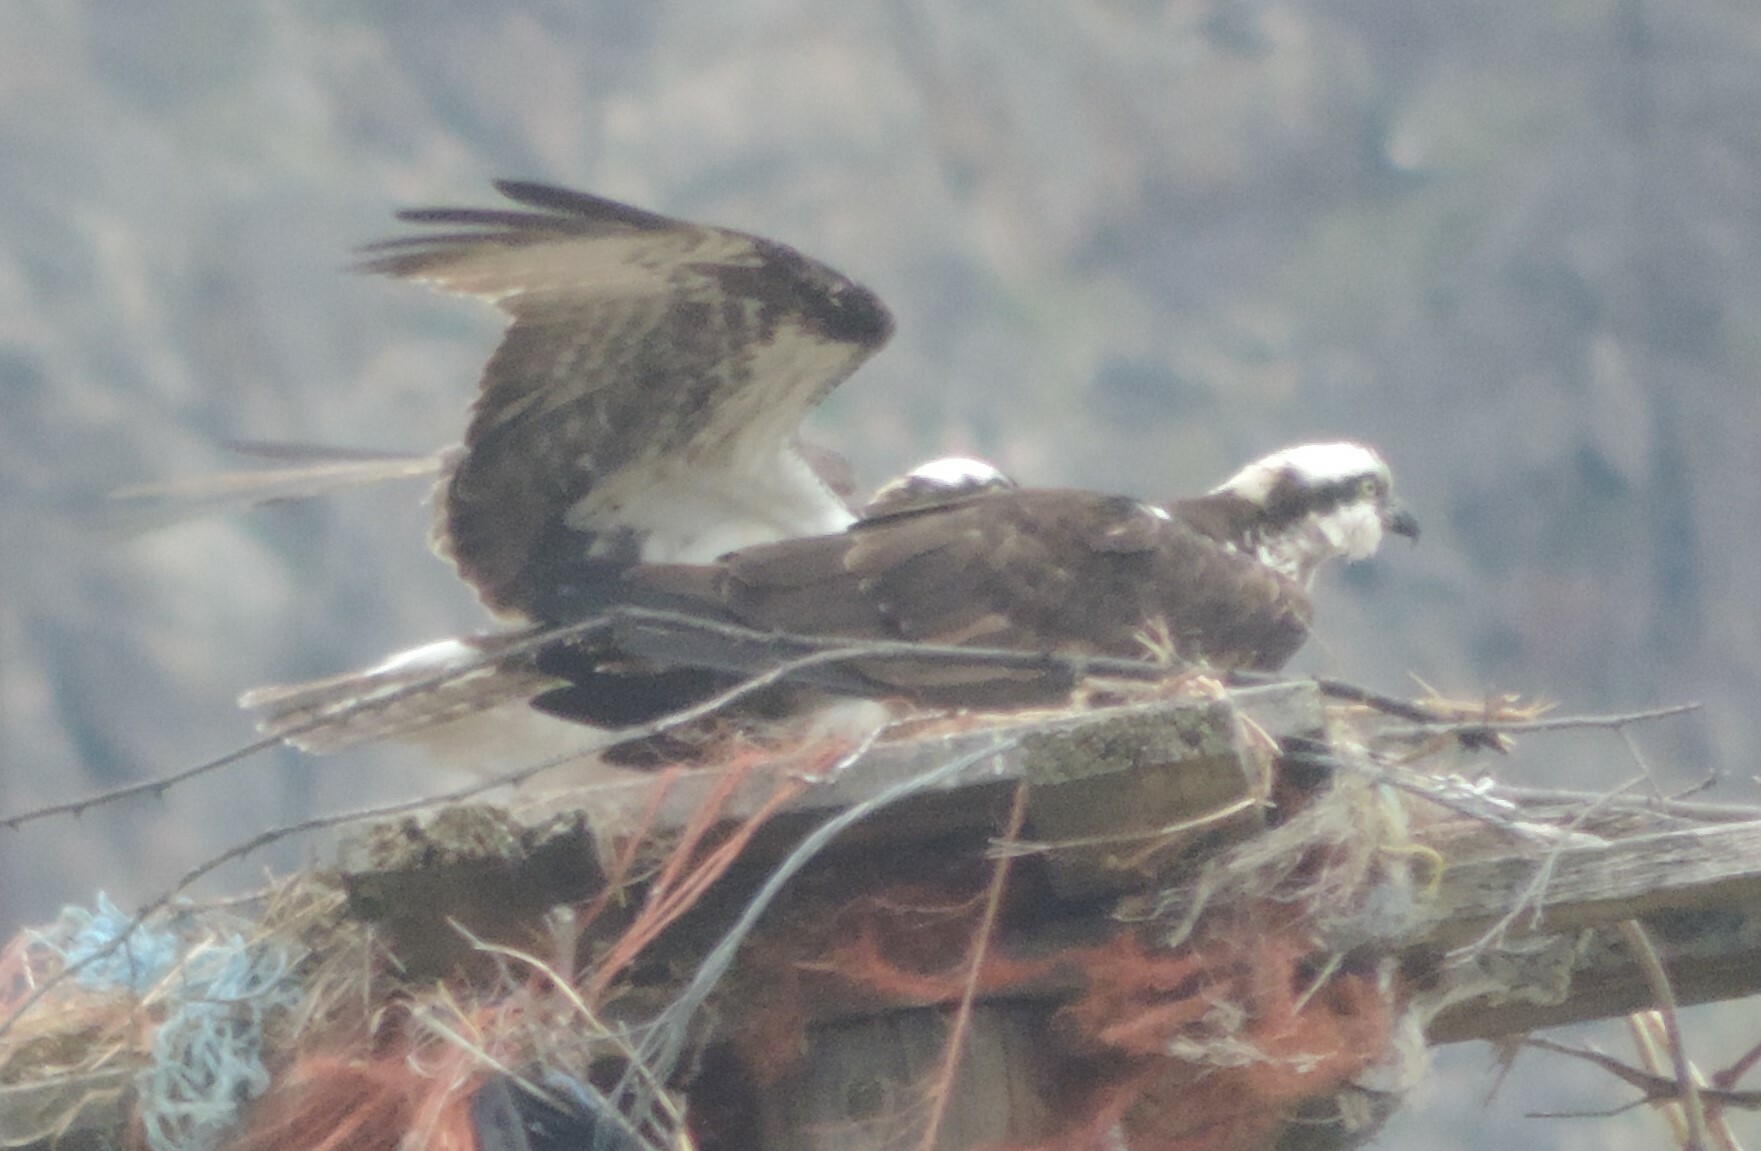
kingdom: Animalia
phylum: Chordata
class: Aves
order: Accipitriformes
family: Pandionidae
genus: Pandion
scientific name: Pandion haliaetus
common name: Osprey
